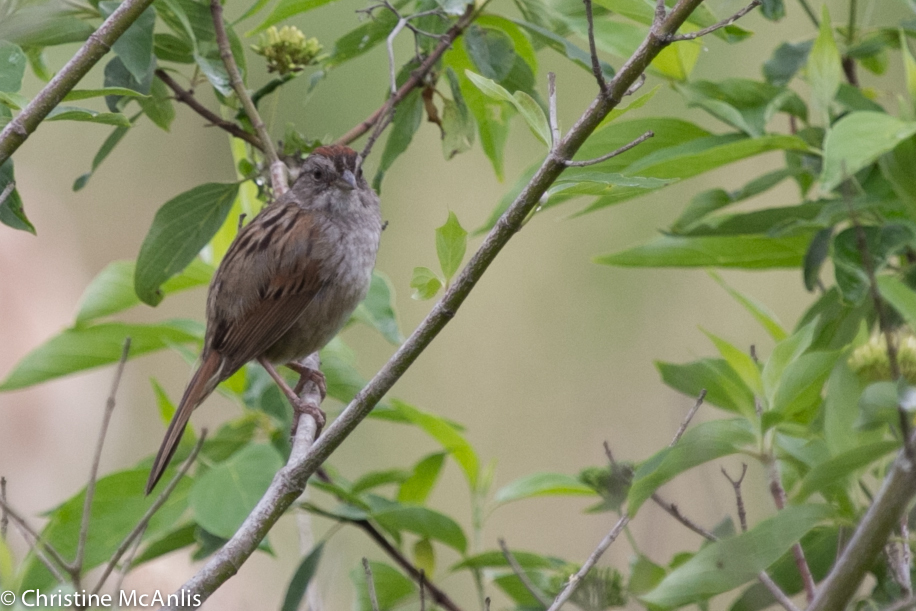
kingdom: Animalia
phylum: Chordata
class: Aves
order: Passeriformes
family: Passerellidae
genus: Melospiza
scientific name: Melospiza georgiana
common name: Swamp sparrow
